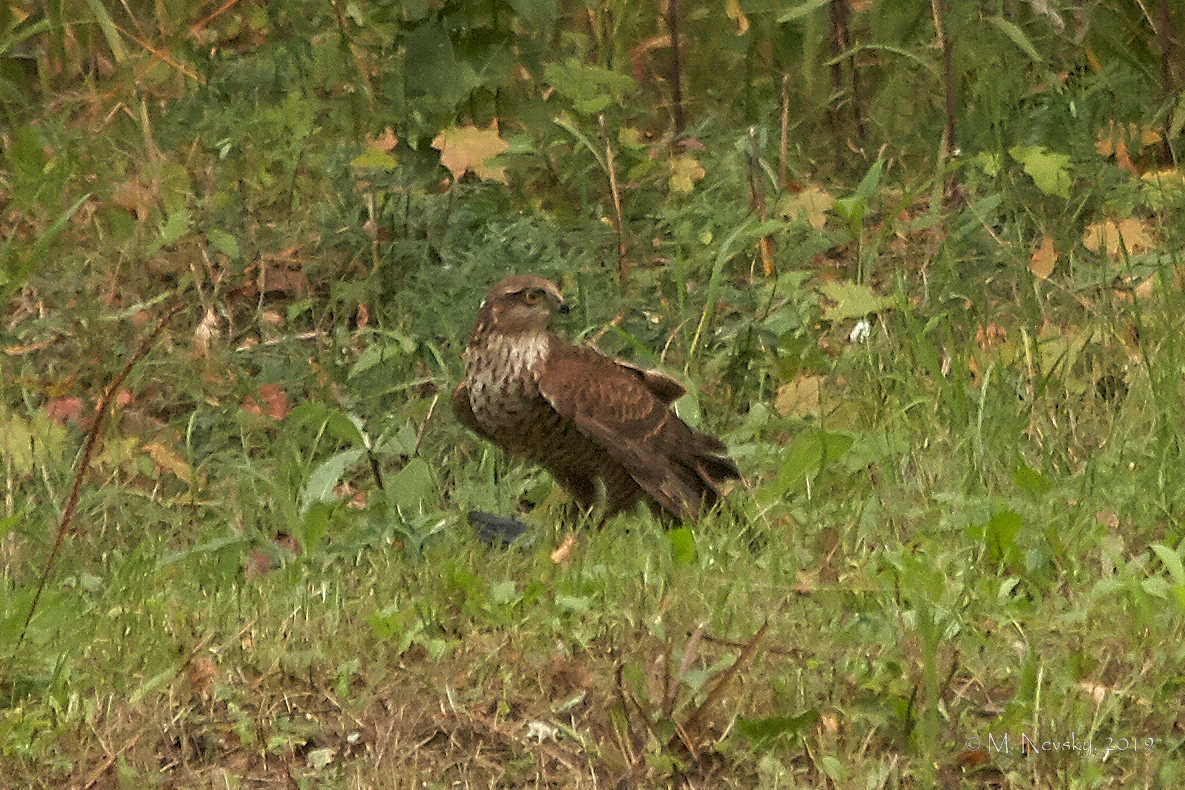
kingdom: Animalia
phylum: Chordata
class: Aves
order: Accipitriformes
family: Accipitridae
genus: Accipiter
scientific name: Accipiter nisus
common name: Eurasian sparrowhawk
